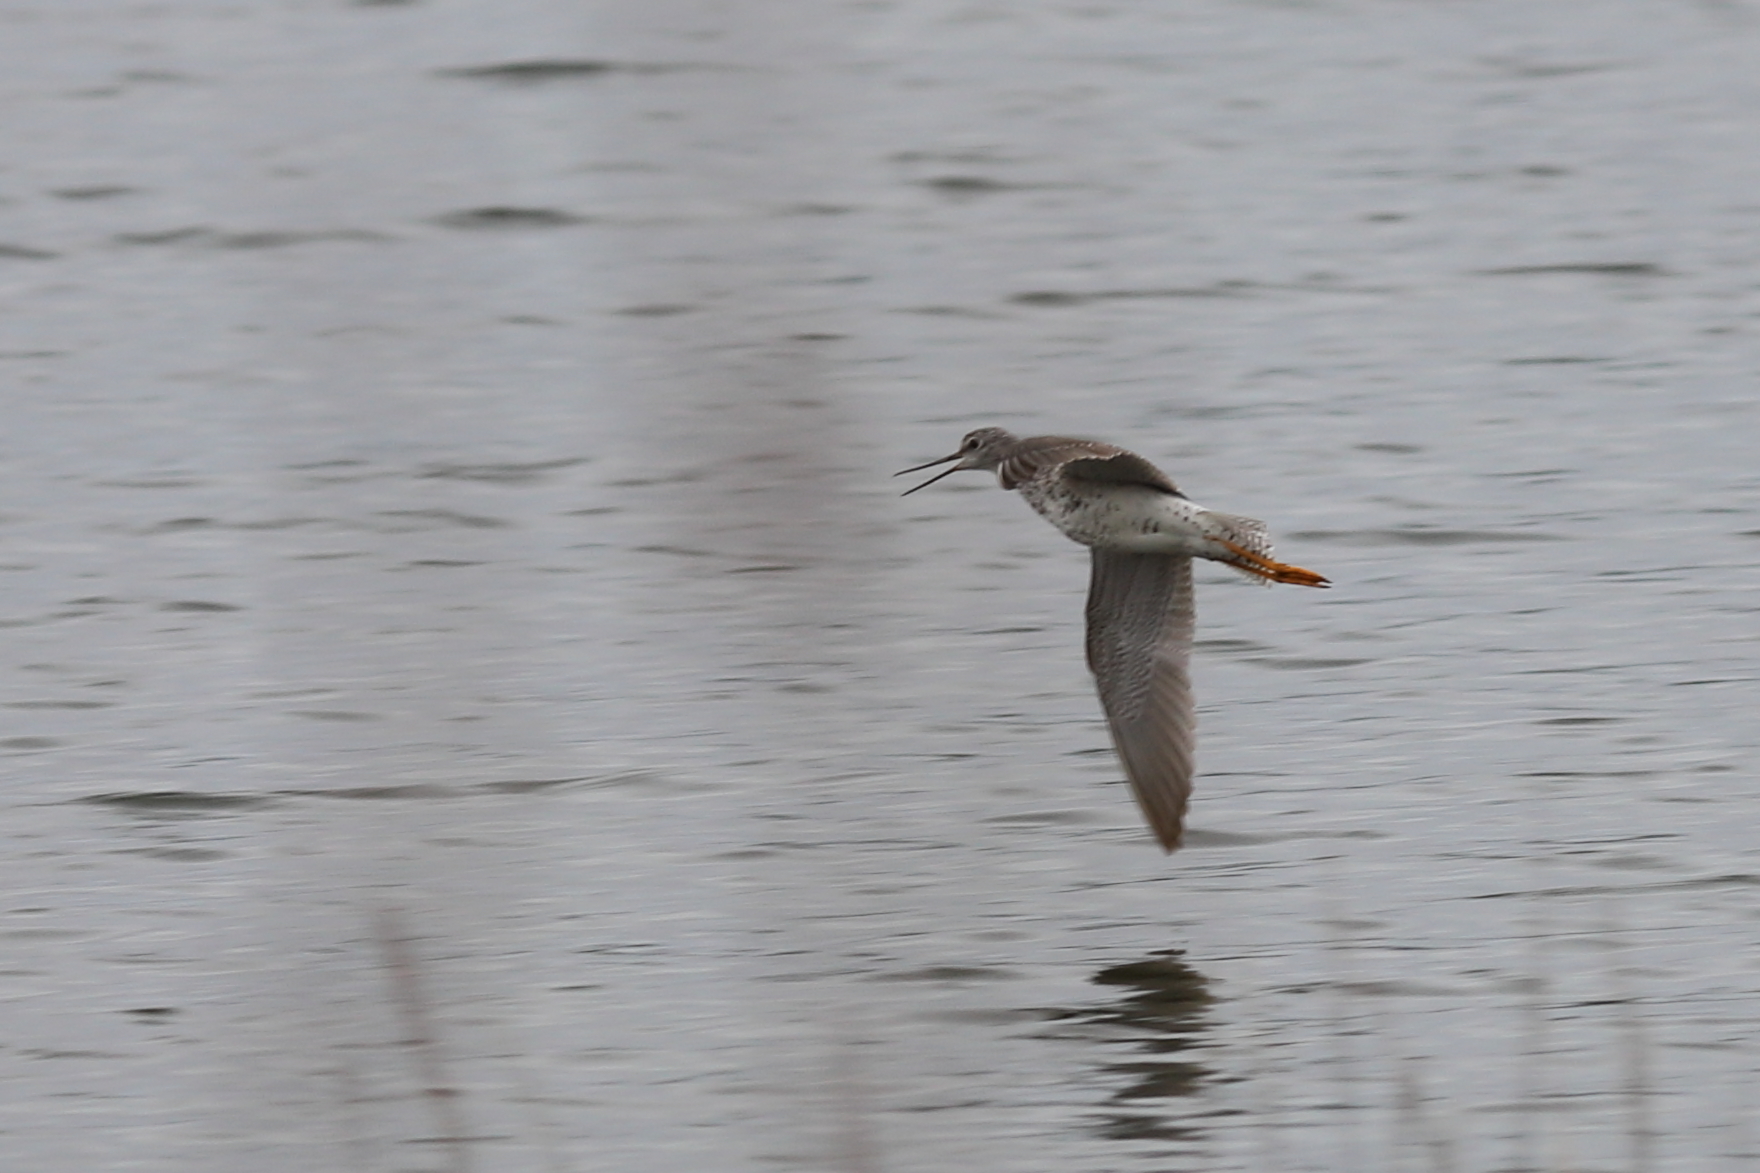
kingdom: Animalia
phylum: Chordata
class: Aves
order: Charadriiformes
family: Scolopacidae
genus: Tringa
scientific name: Tringa melanoleuca
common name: Greater yellowlegs
